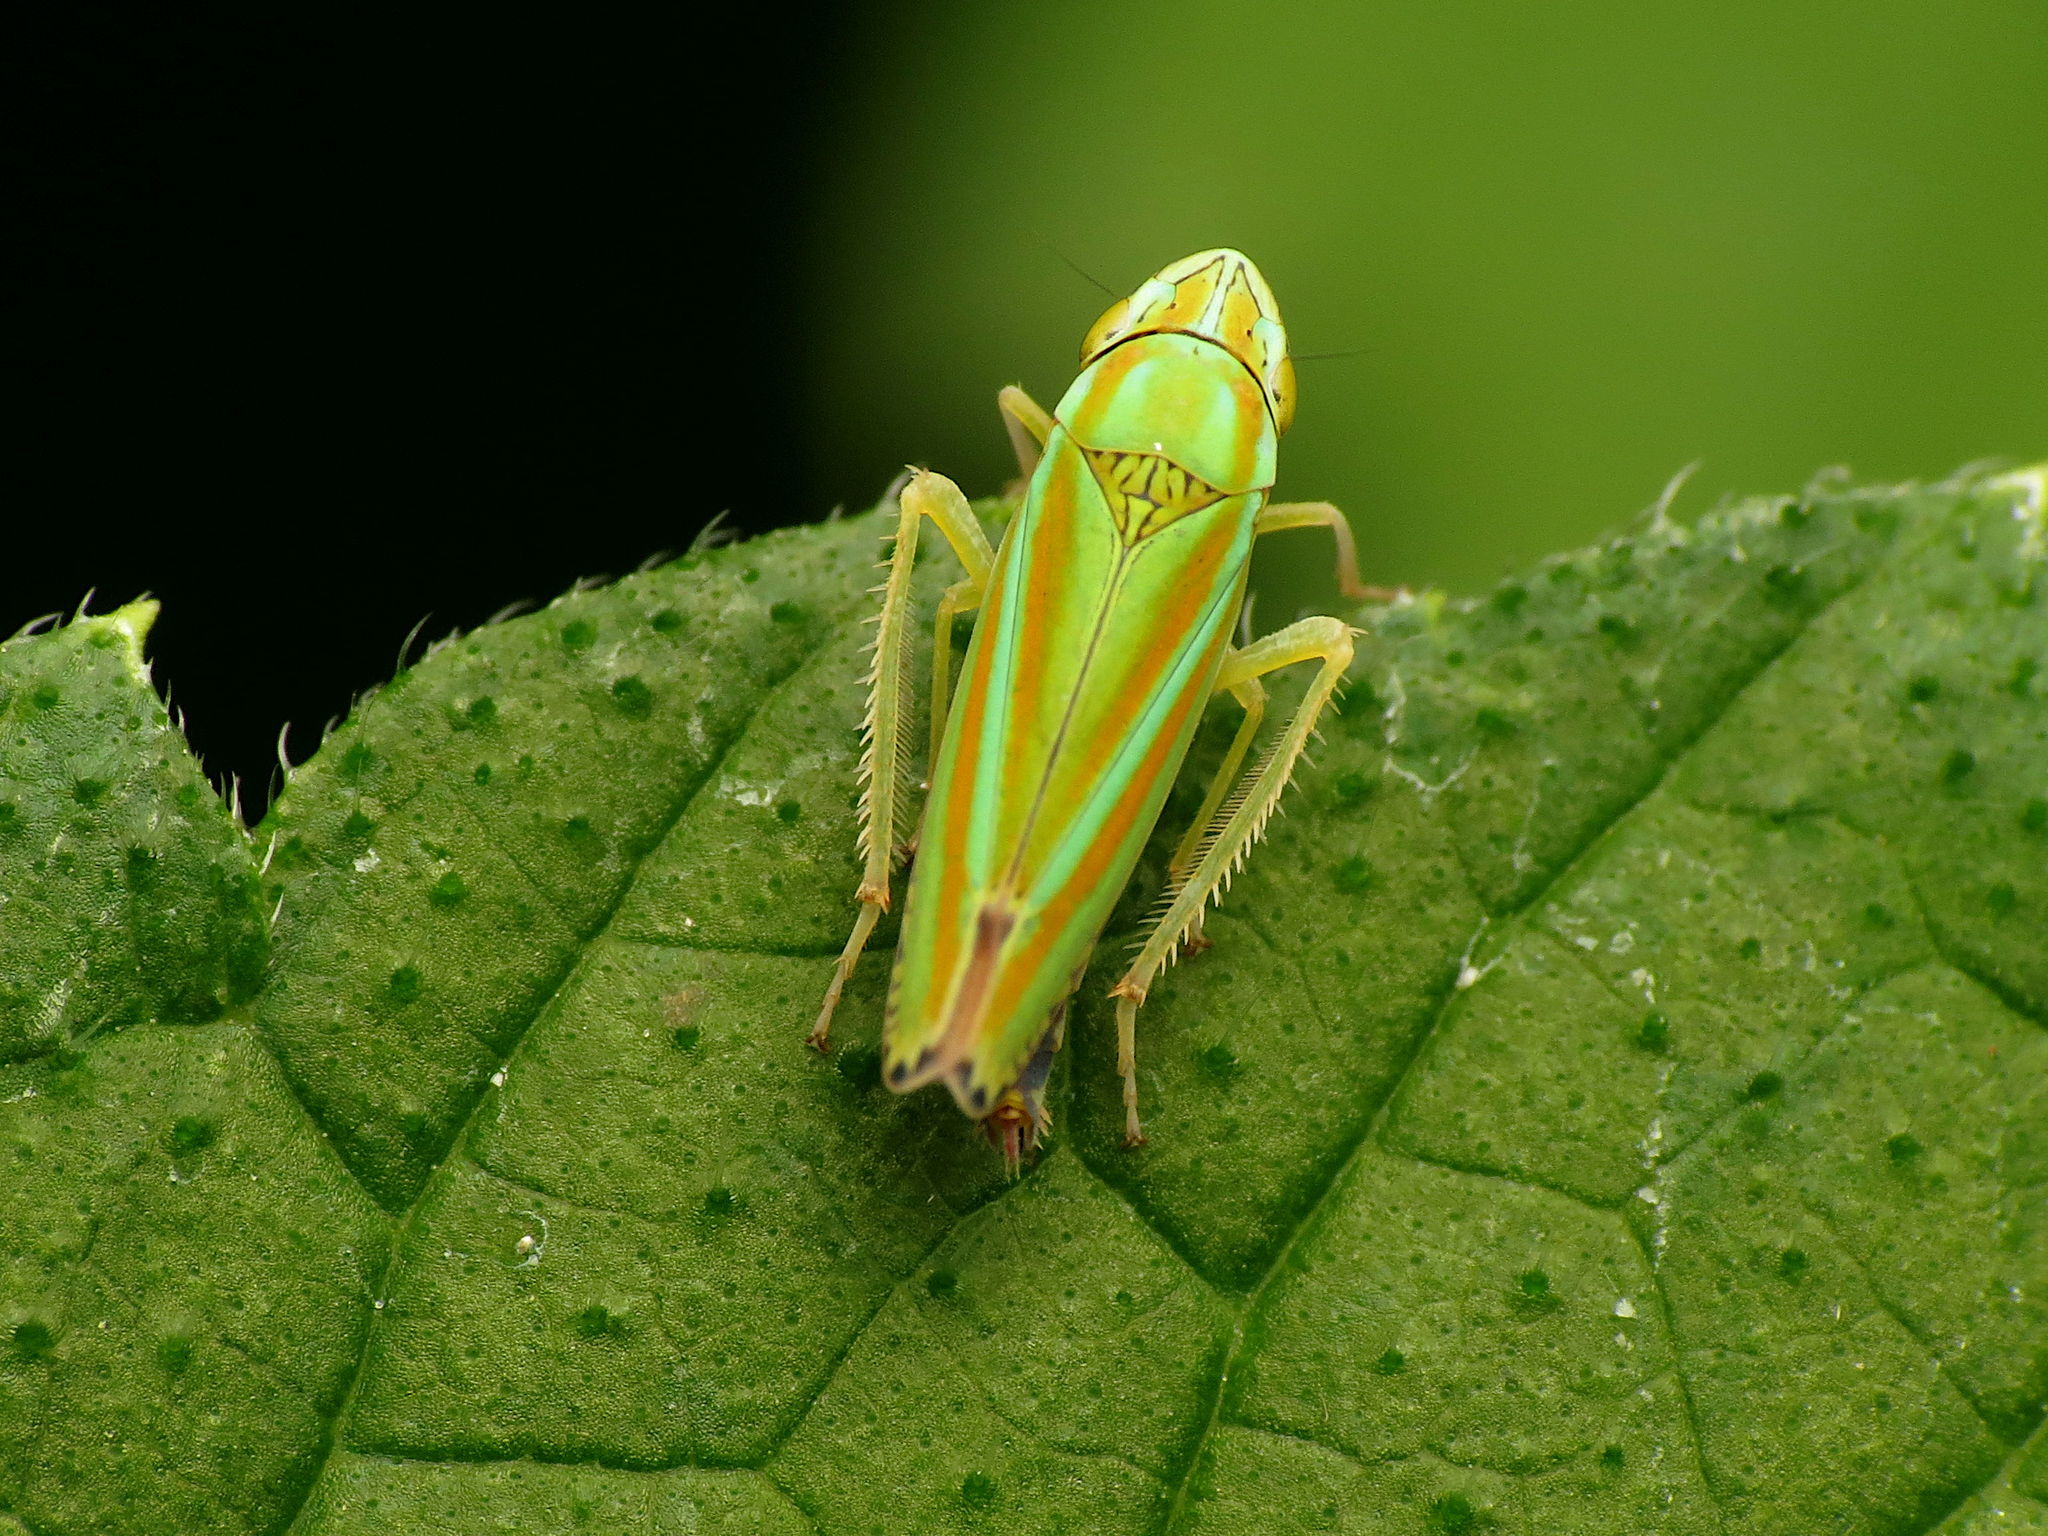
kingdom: Animalia
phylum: Arthropoda
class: Insecta
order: Hemiptera
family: Cicadellidae
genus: Graphocephala
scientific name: Graphocephala versuta
